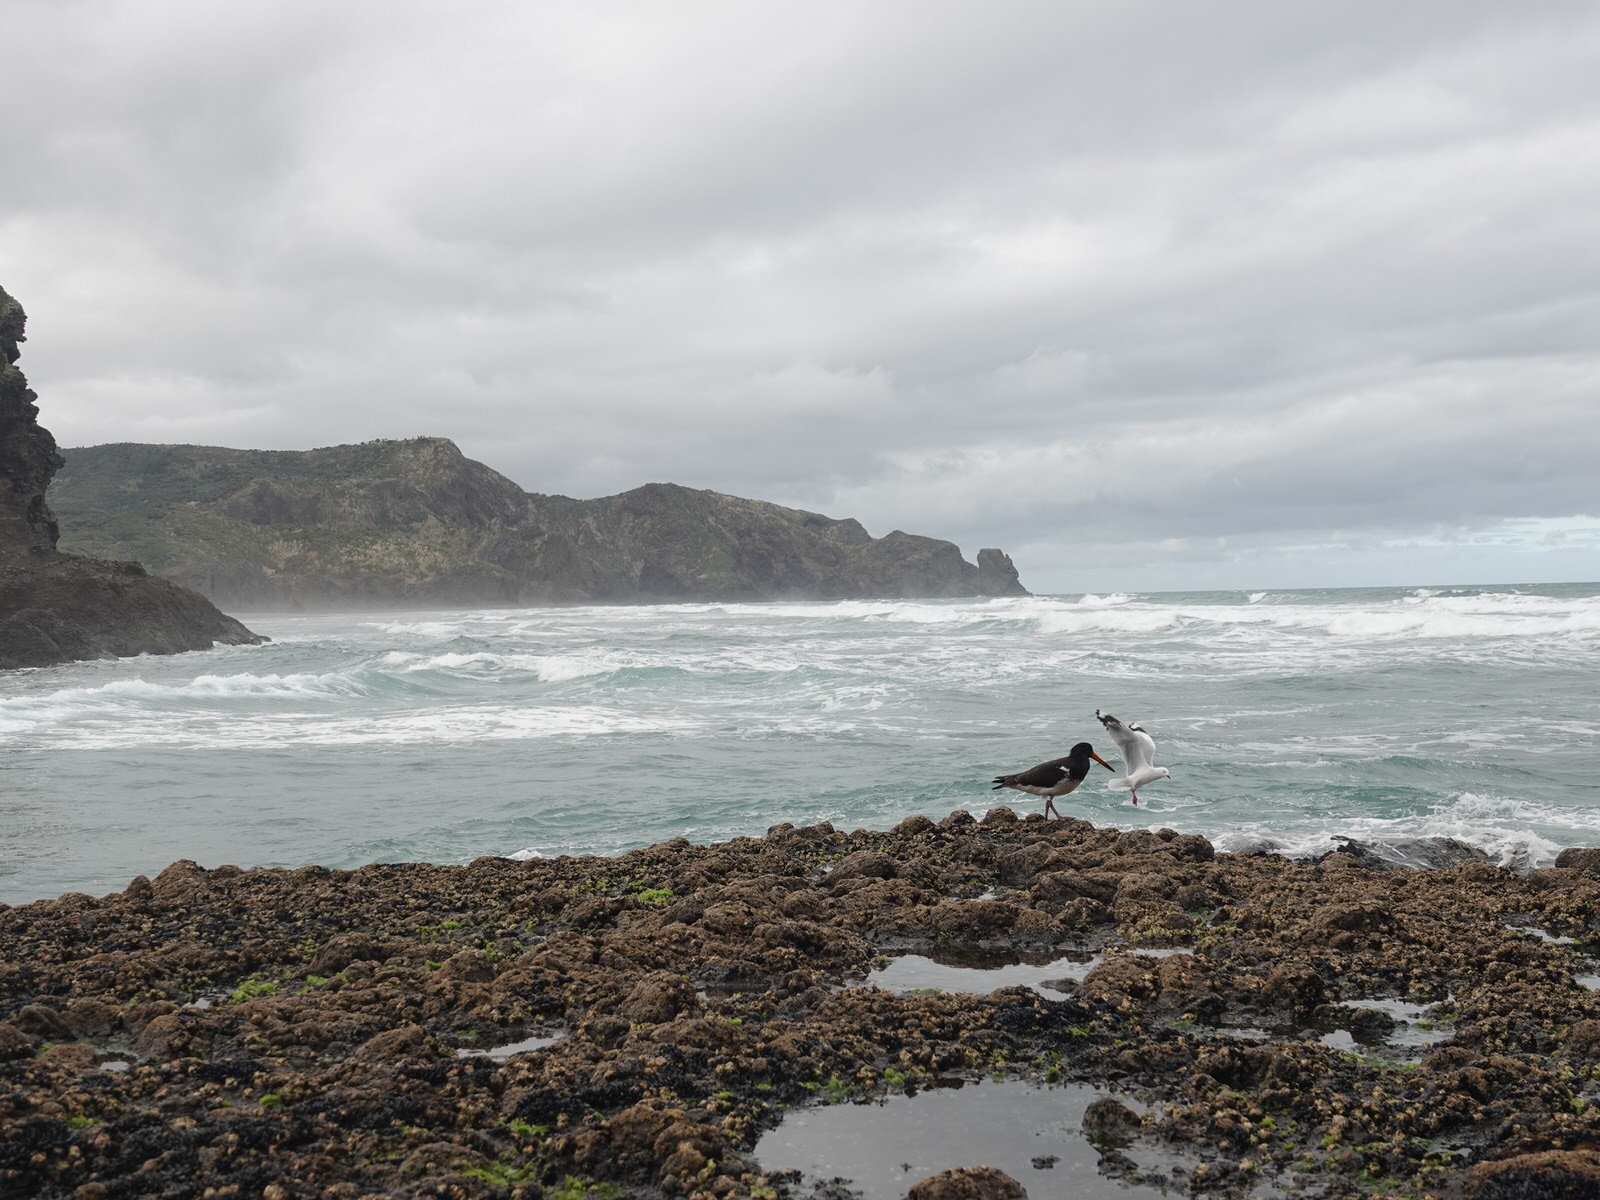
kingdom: Animalia
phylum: Chordata
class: Aves
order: Charadriiformes
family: Haematopodidae
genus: Haematopus
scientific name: Haematopus unicolor
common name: Variable oystercatcher
